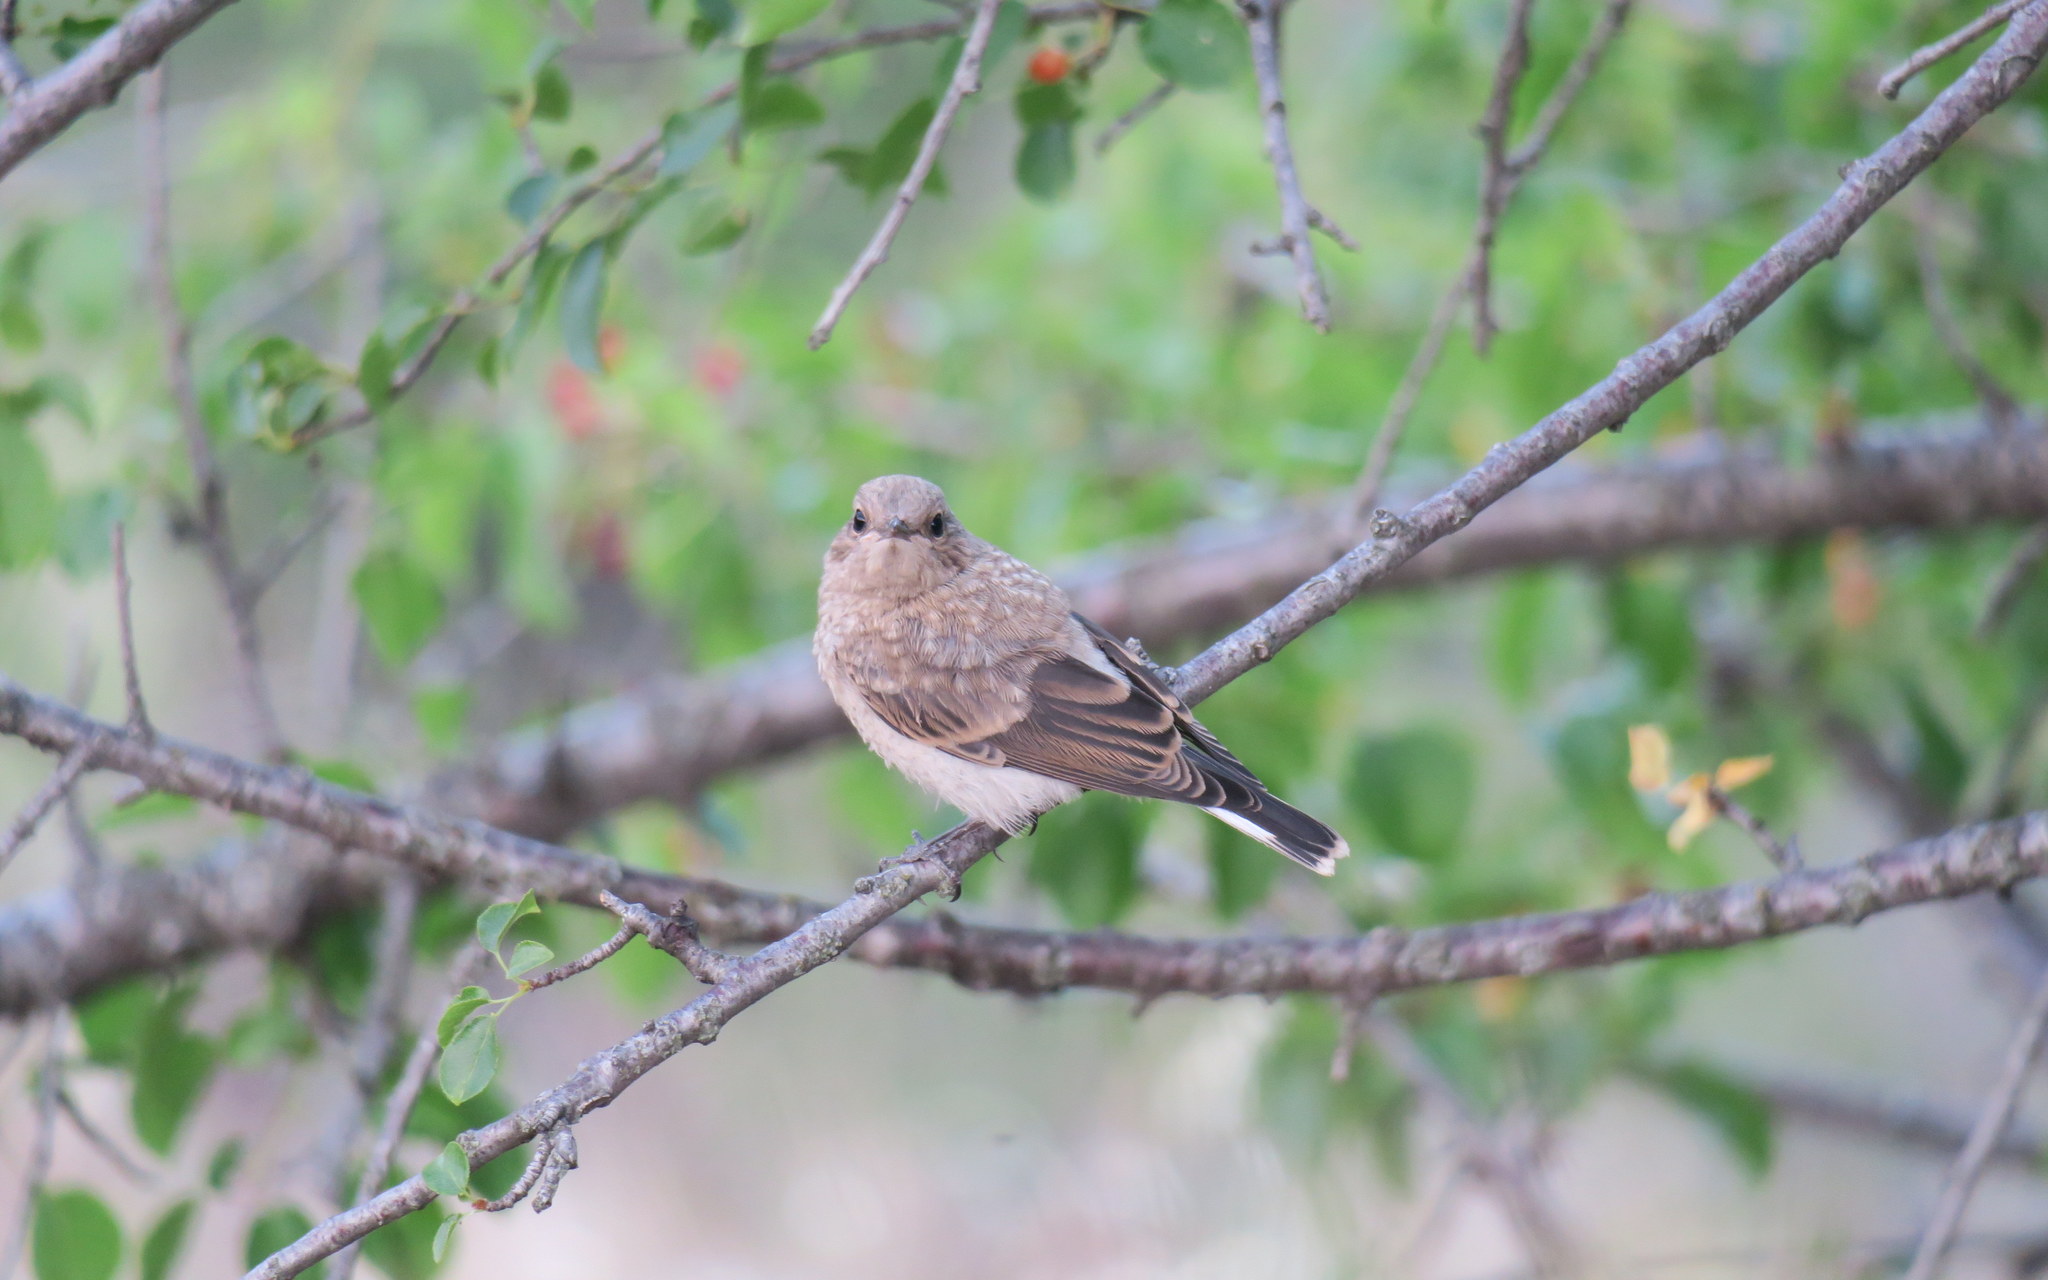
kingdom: Animalia
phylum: Chordata
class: Aves
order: Passeriformes
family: Muscicapidae
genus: Oenanthe
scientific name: Oenanthe hispanica
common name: Black-eared wheatear
